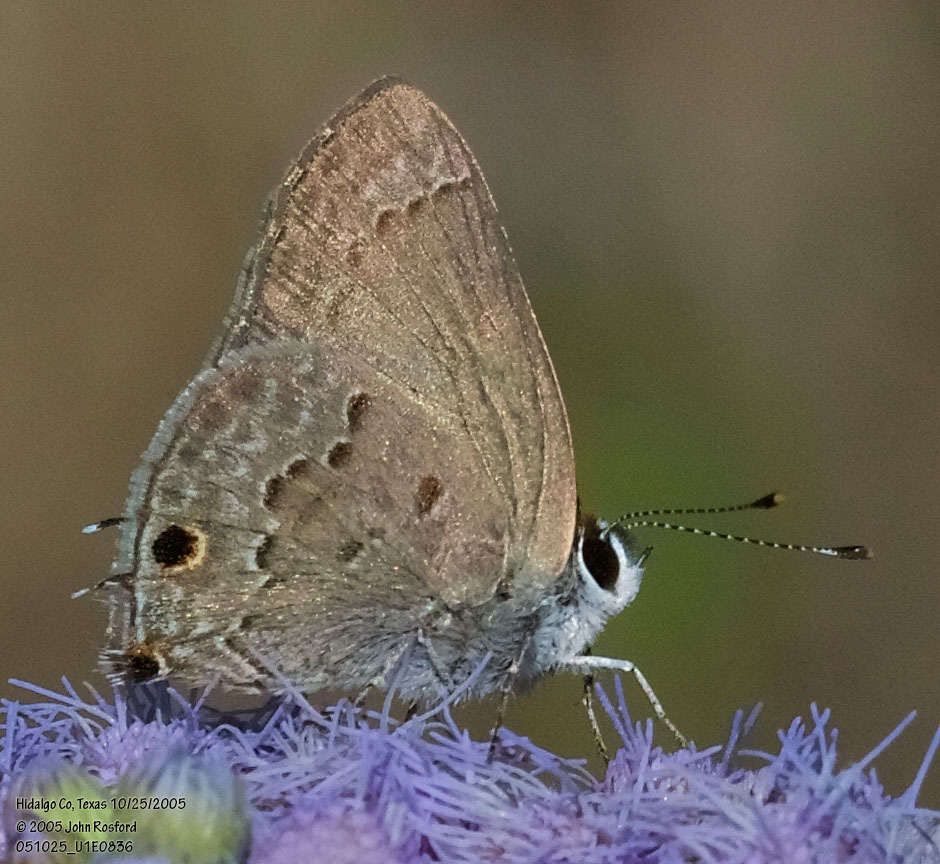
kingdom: Animalia
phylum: Arthropoda
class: Insecta
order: Lepidoptera
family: Lycaenidae
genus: Callicista
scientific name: Callicista columella
